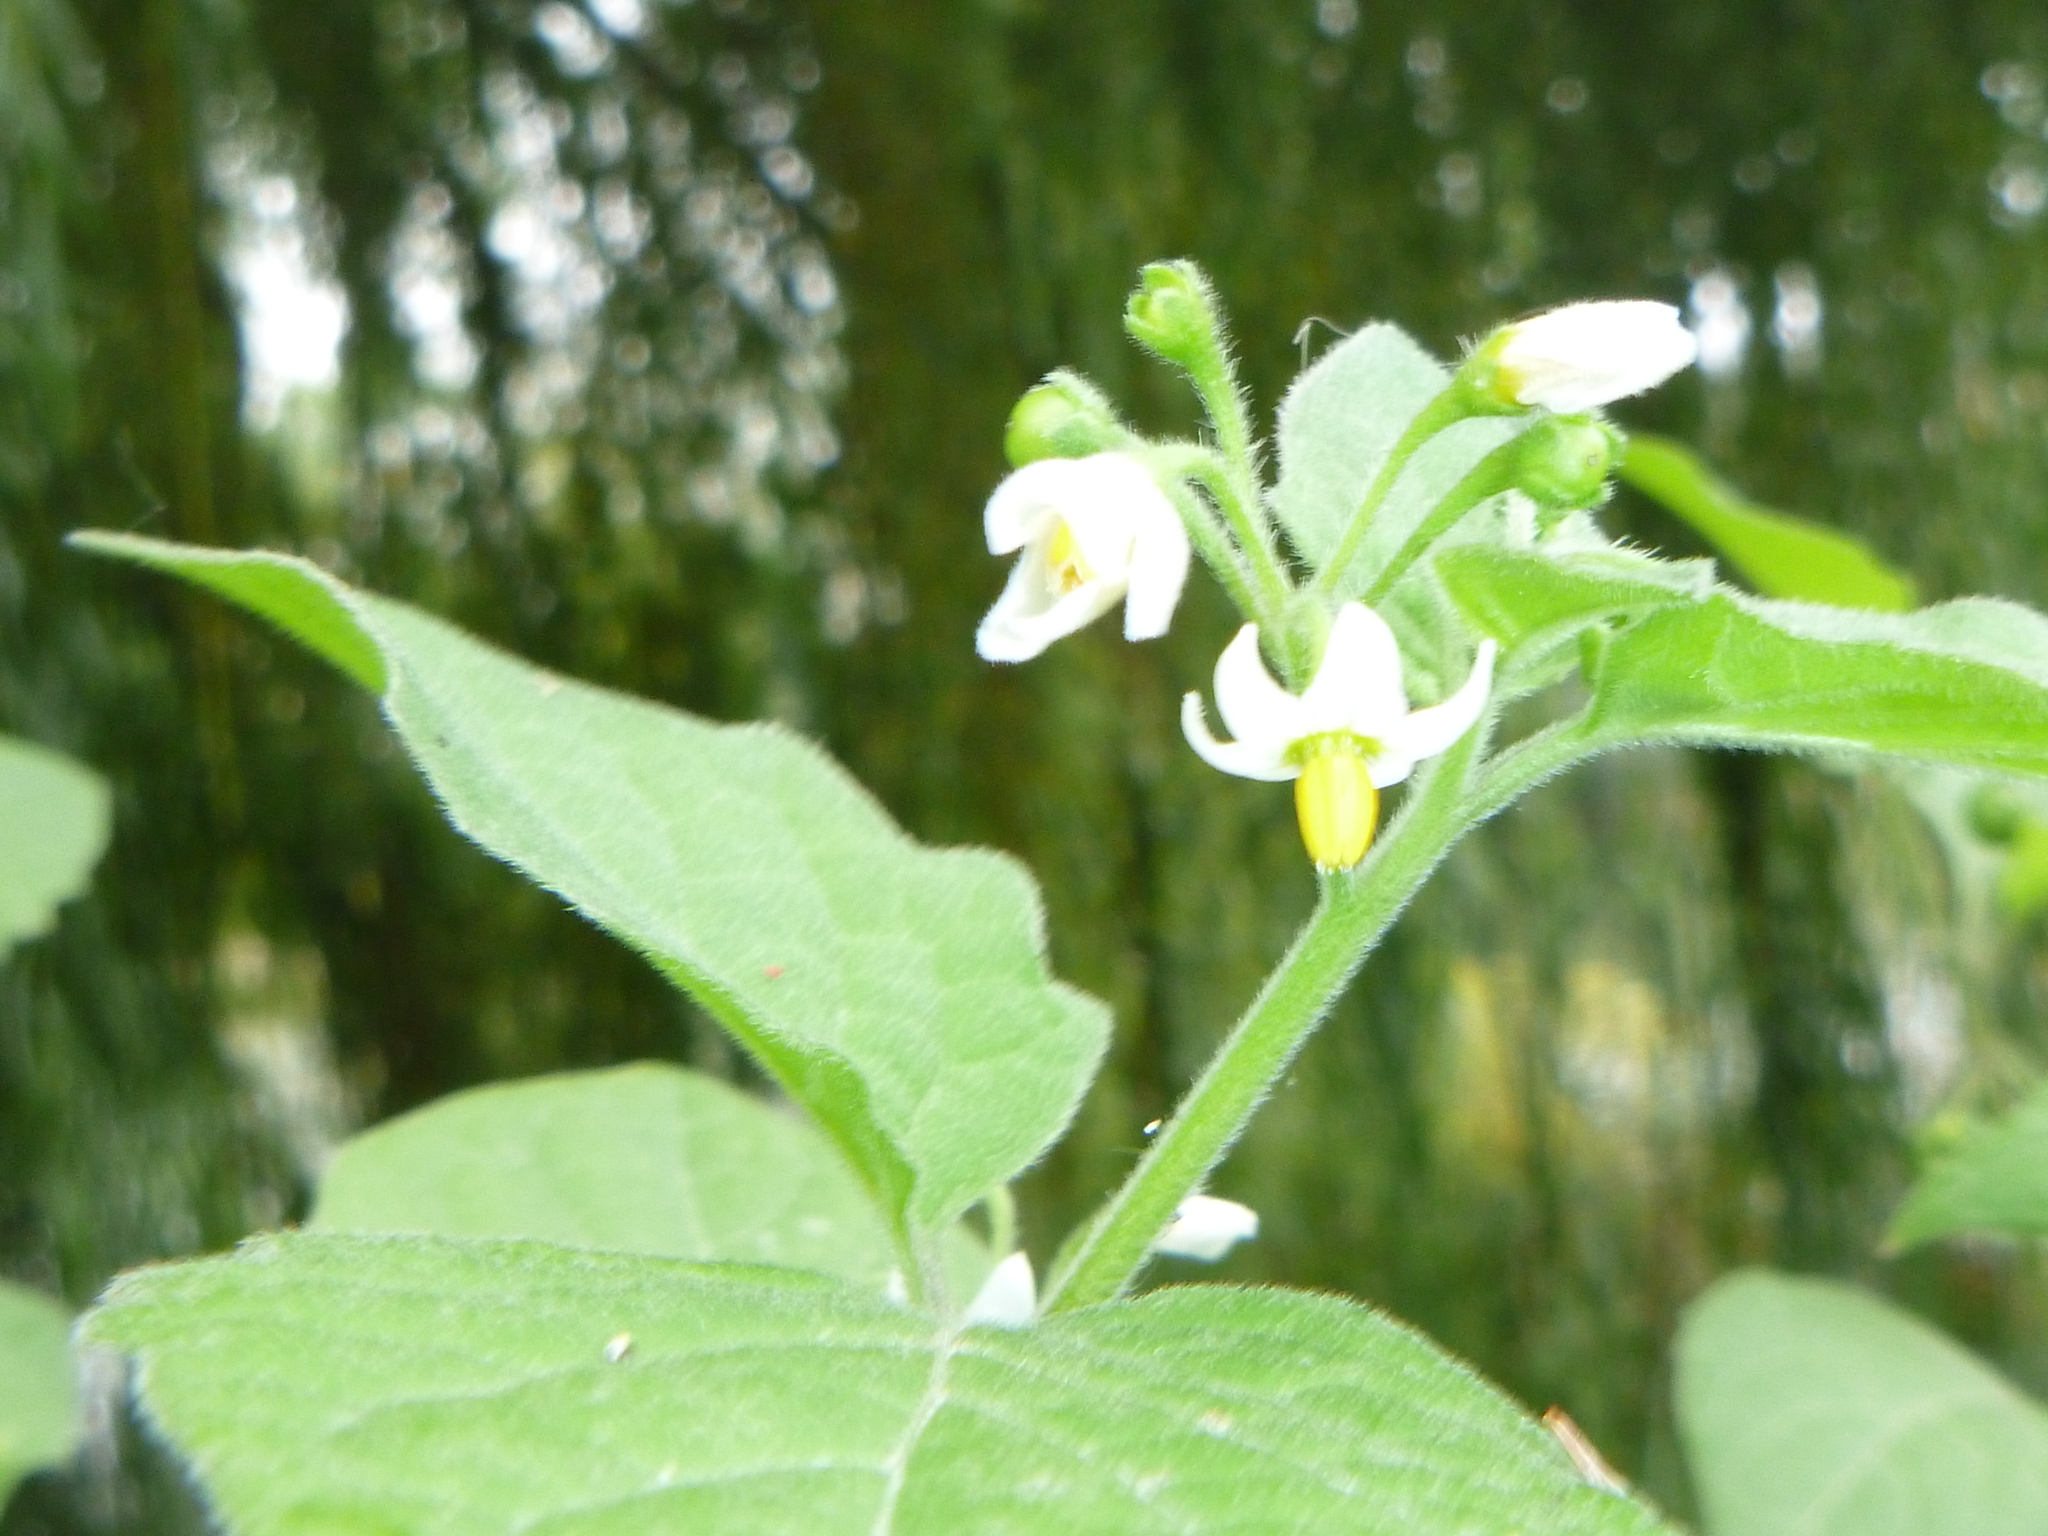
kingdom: Plantae
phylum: Tracheophyta
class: Magnoliopsida
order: Solanales
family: Solanaceae
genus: Solanum
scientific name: Solanum nigrum
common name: Black nightshade
